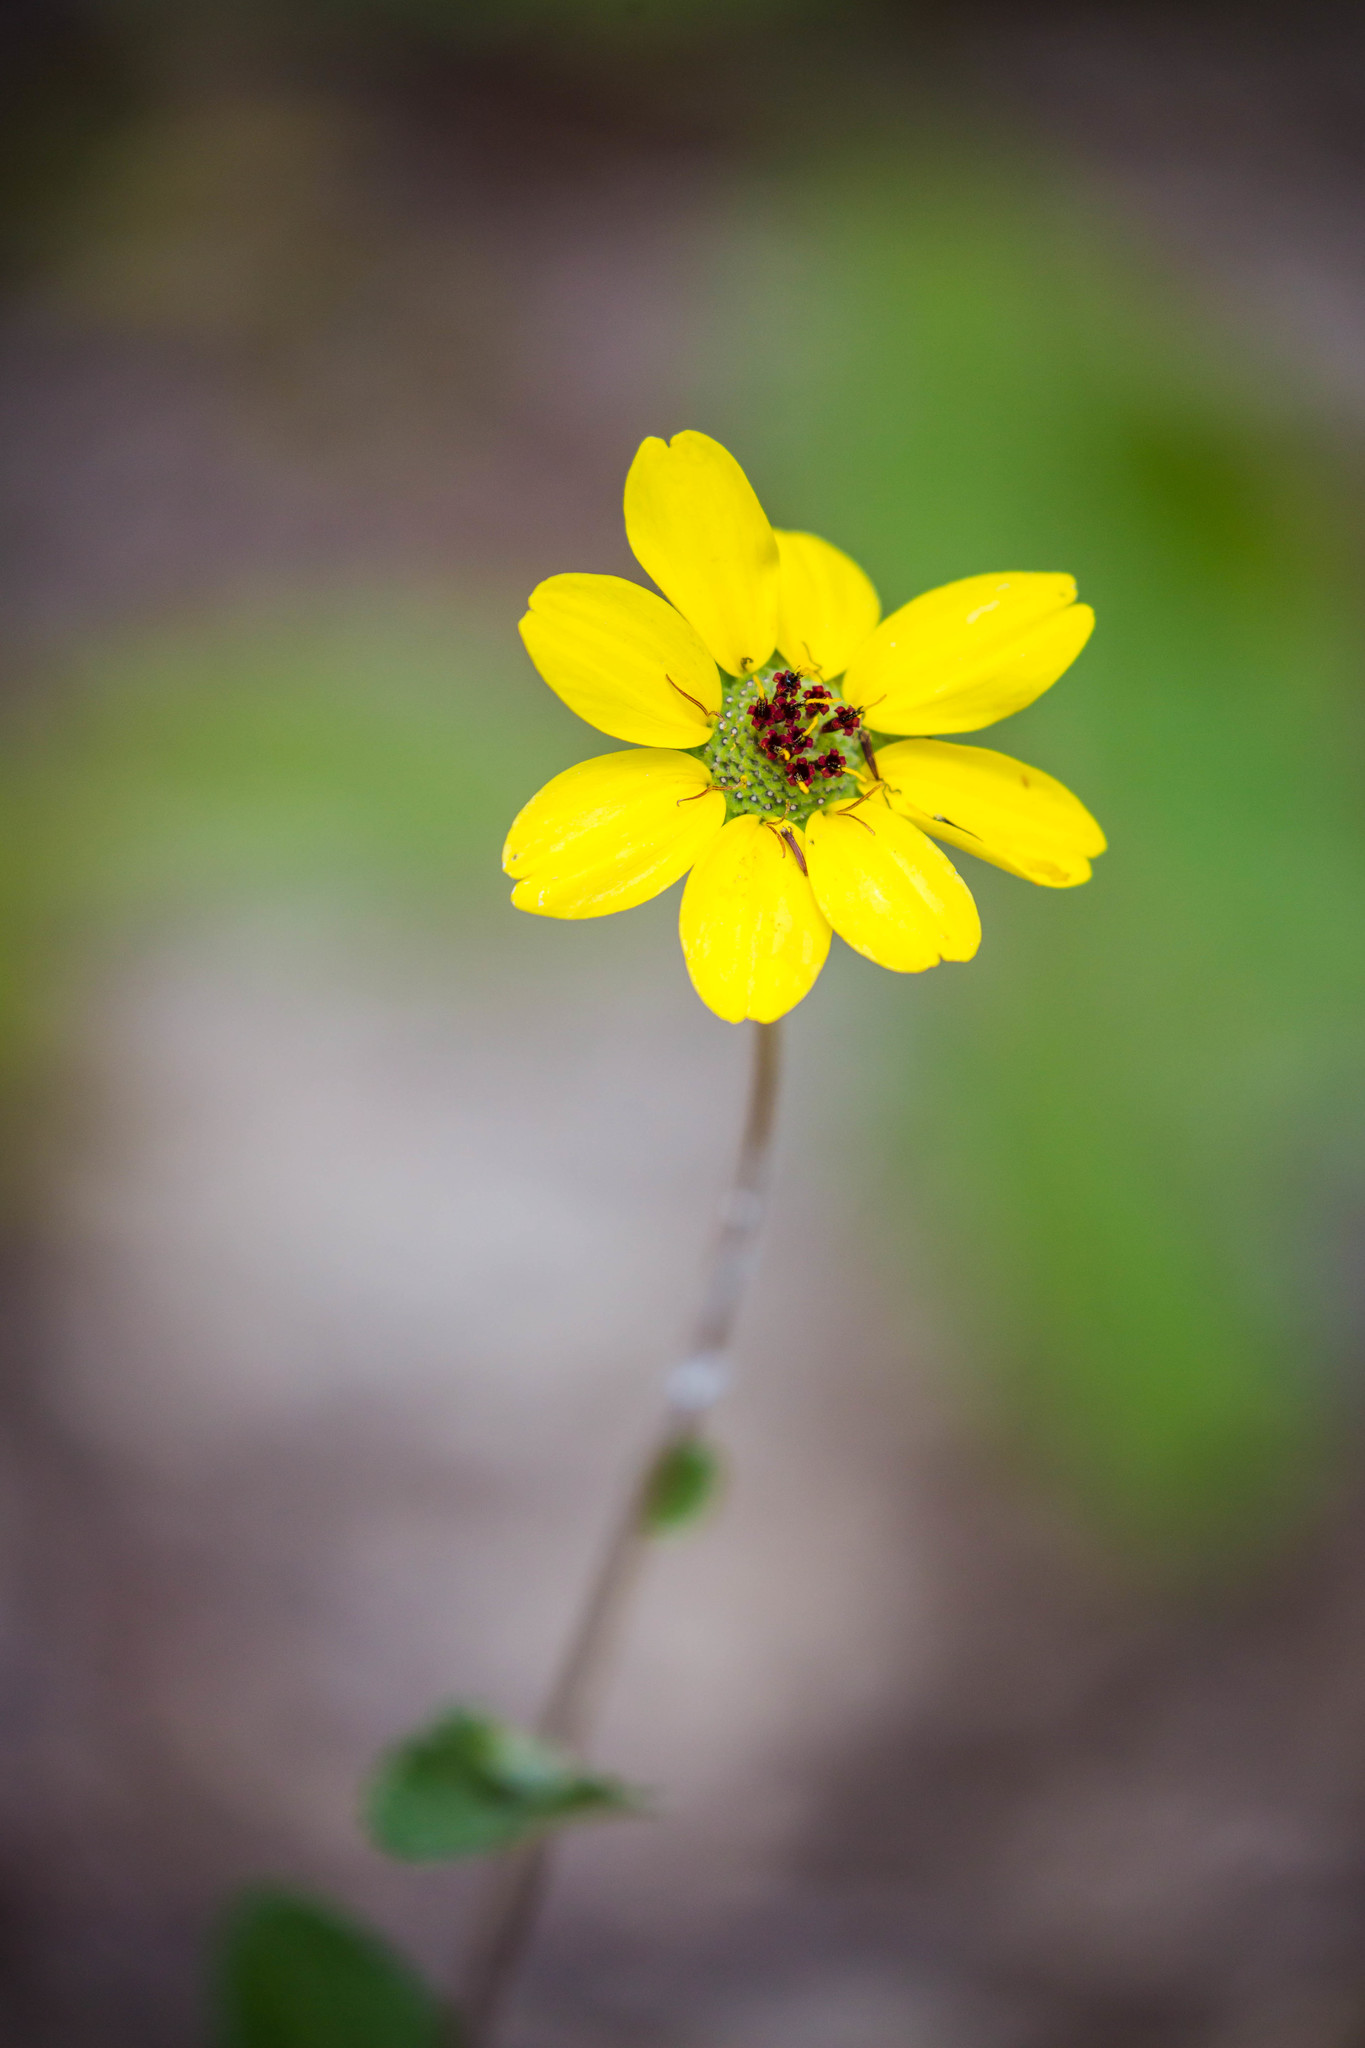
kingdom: Plantae
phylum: Tracheophyta
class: Magnoliopsida
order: Asterales
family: Asteraceae
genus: Berlandiera
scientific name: Berlandiera pumila
